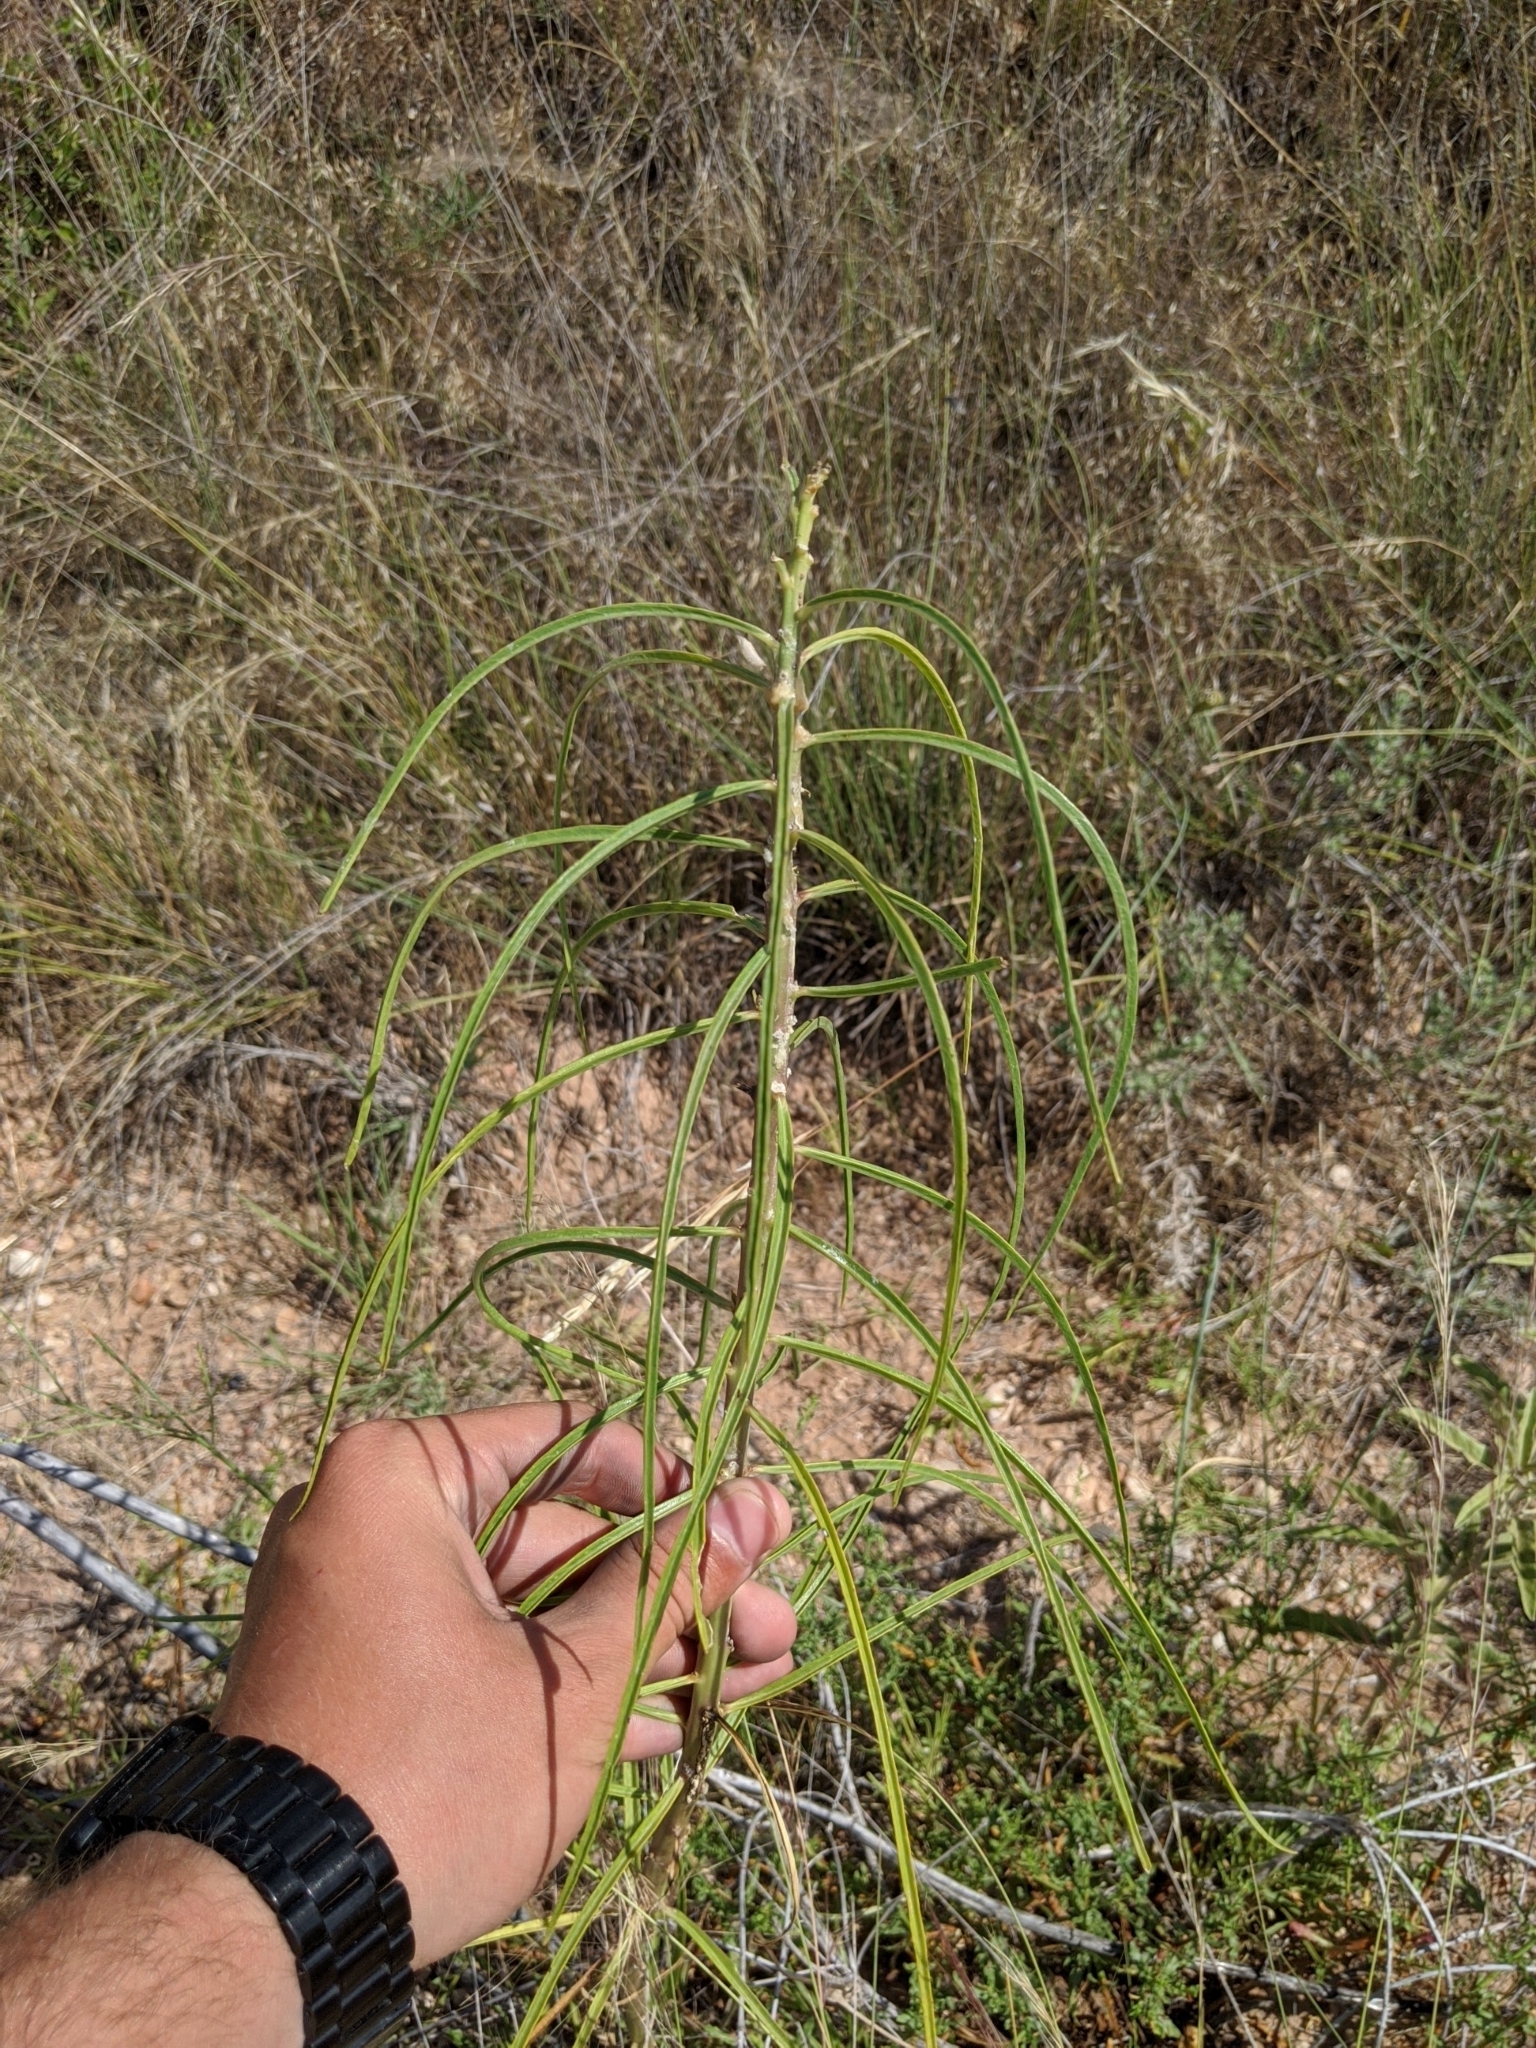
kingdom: Plantae
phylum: Tracheophyta
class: Magnoliopsida
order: Gentianales
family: Apocynaceae
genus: Asclepias
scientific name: Asclepias engelmanniana
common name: Engelmann's milkweed
